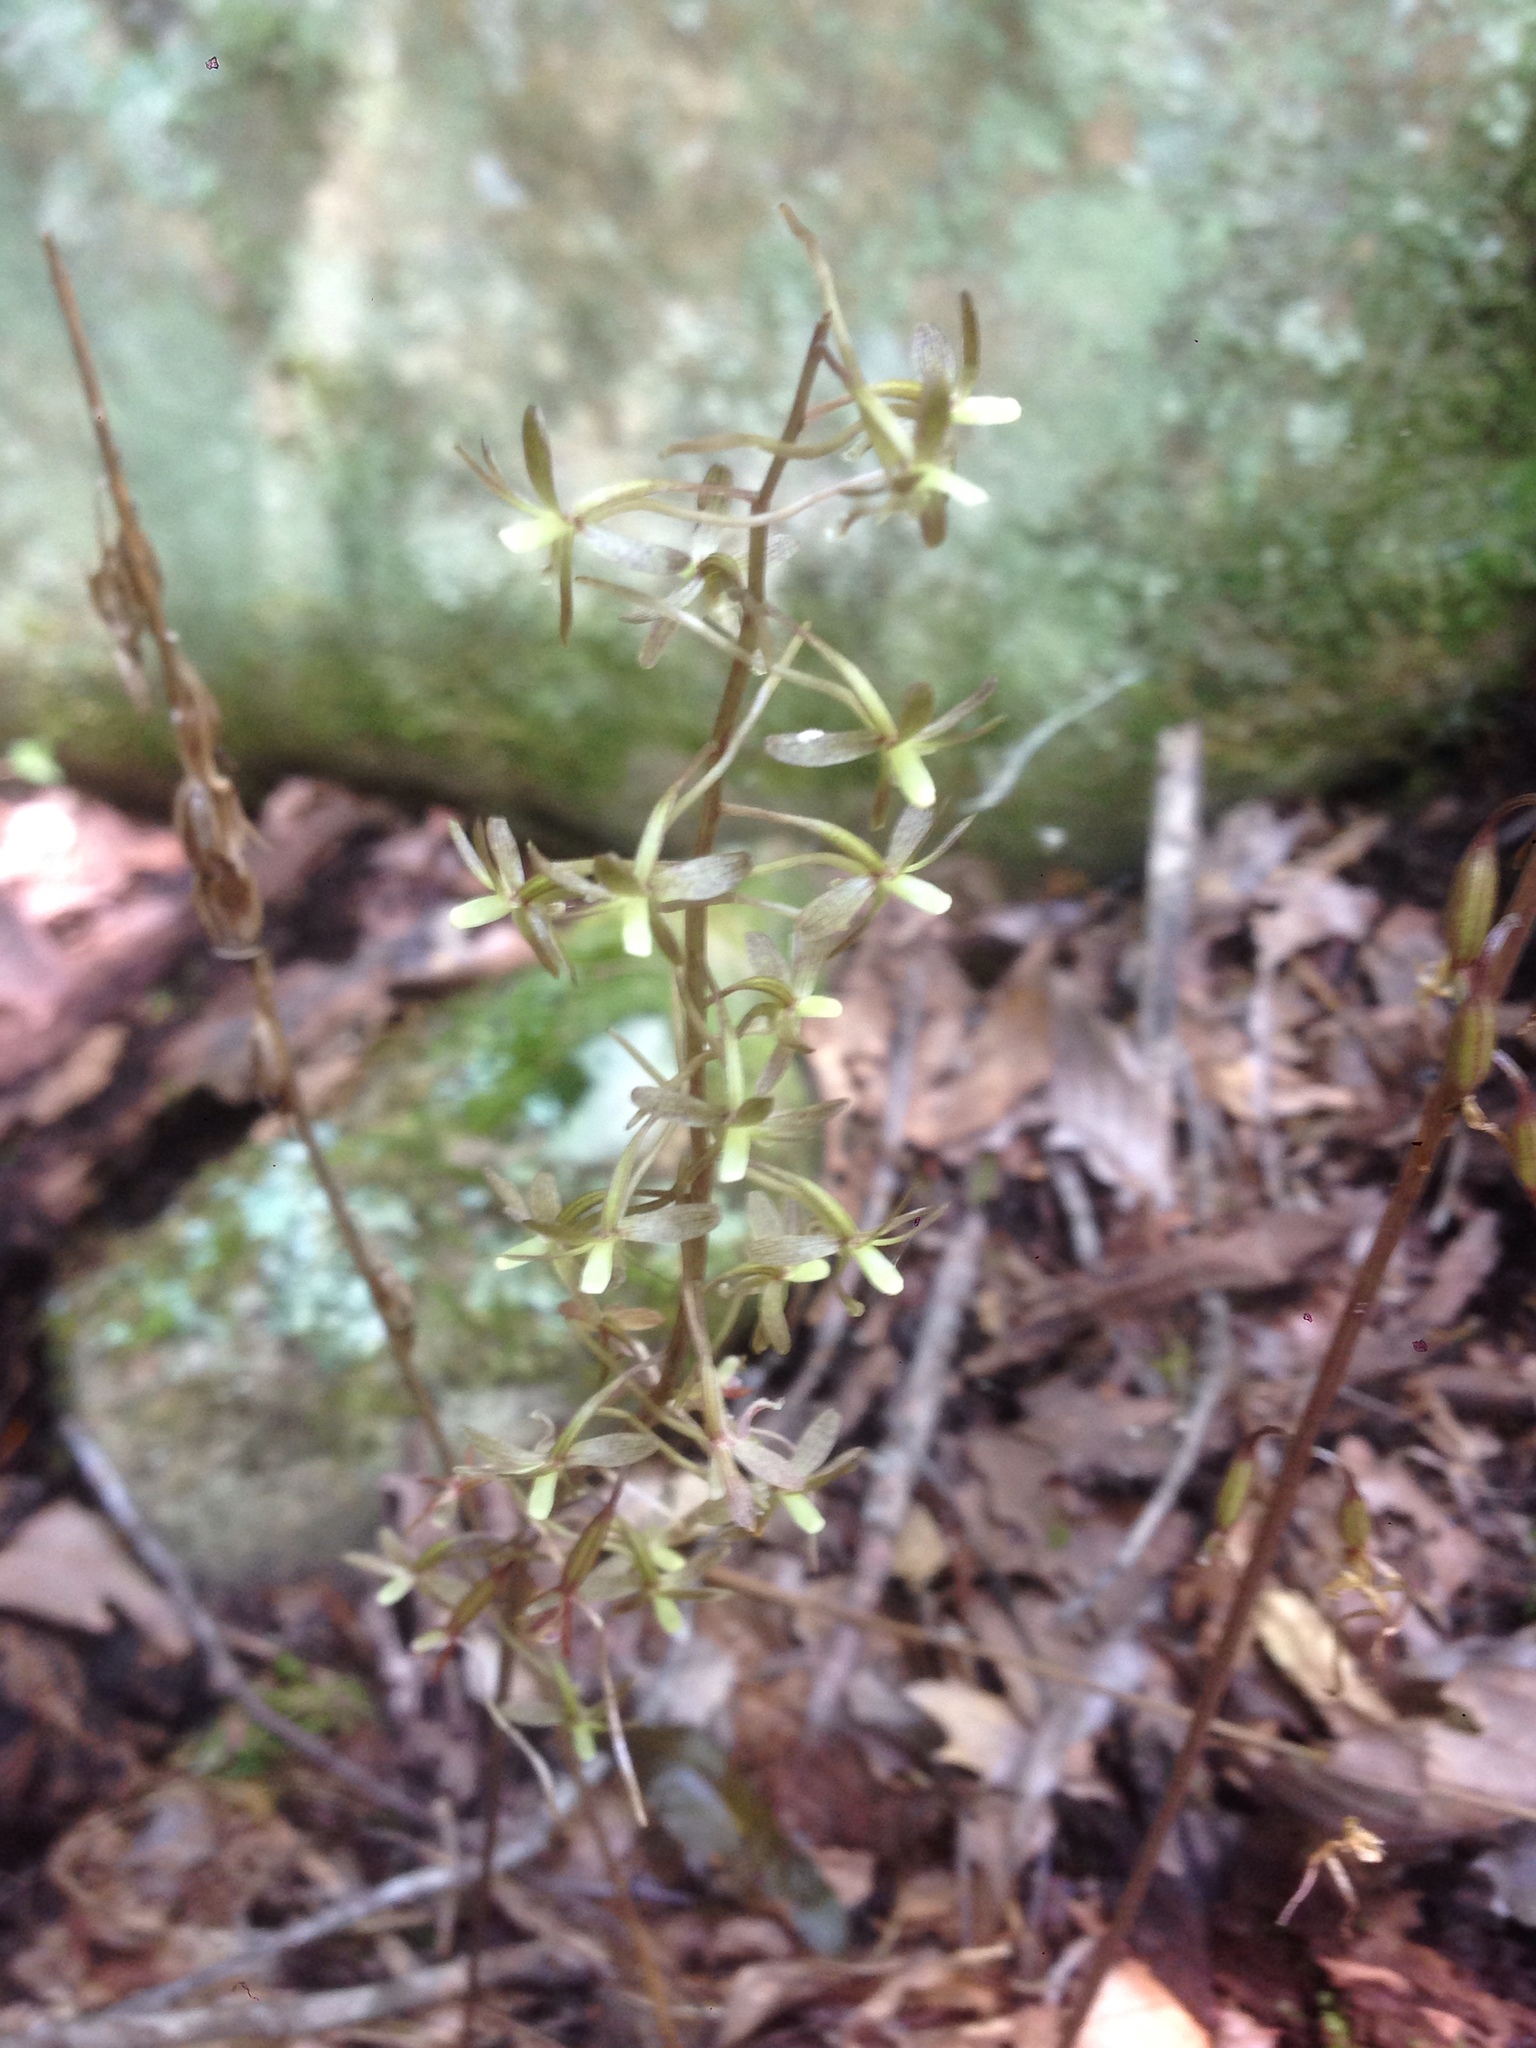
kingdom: Plantae
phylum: Tracheophyta
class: Liliopsida
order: Asparagales
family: Orchidaceae
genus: Tipularia
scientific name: Tipularia discolor
